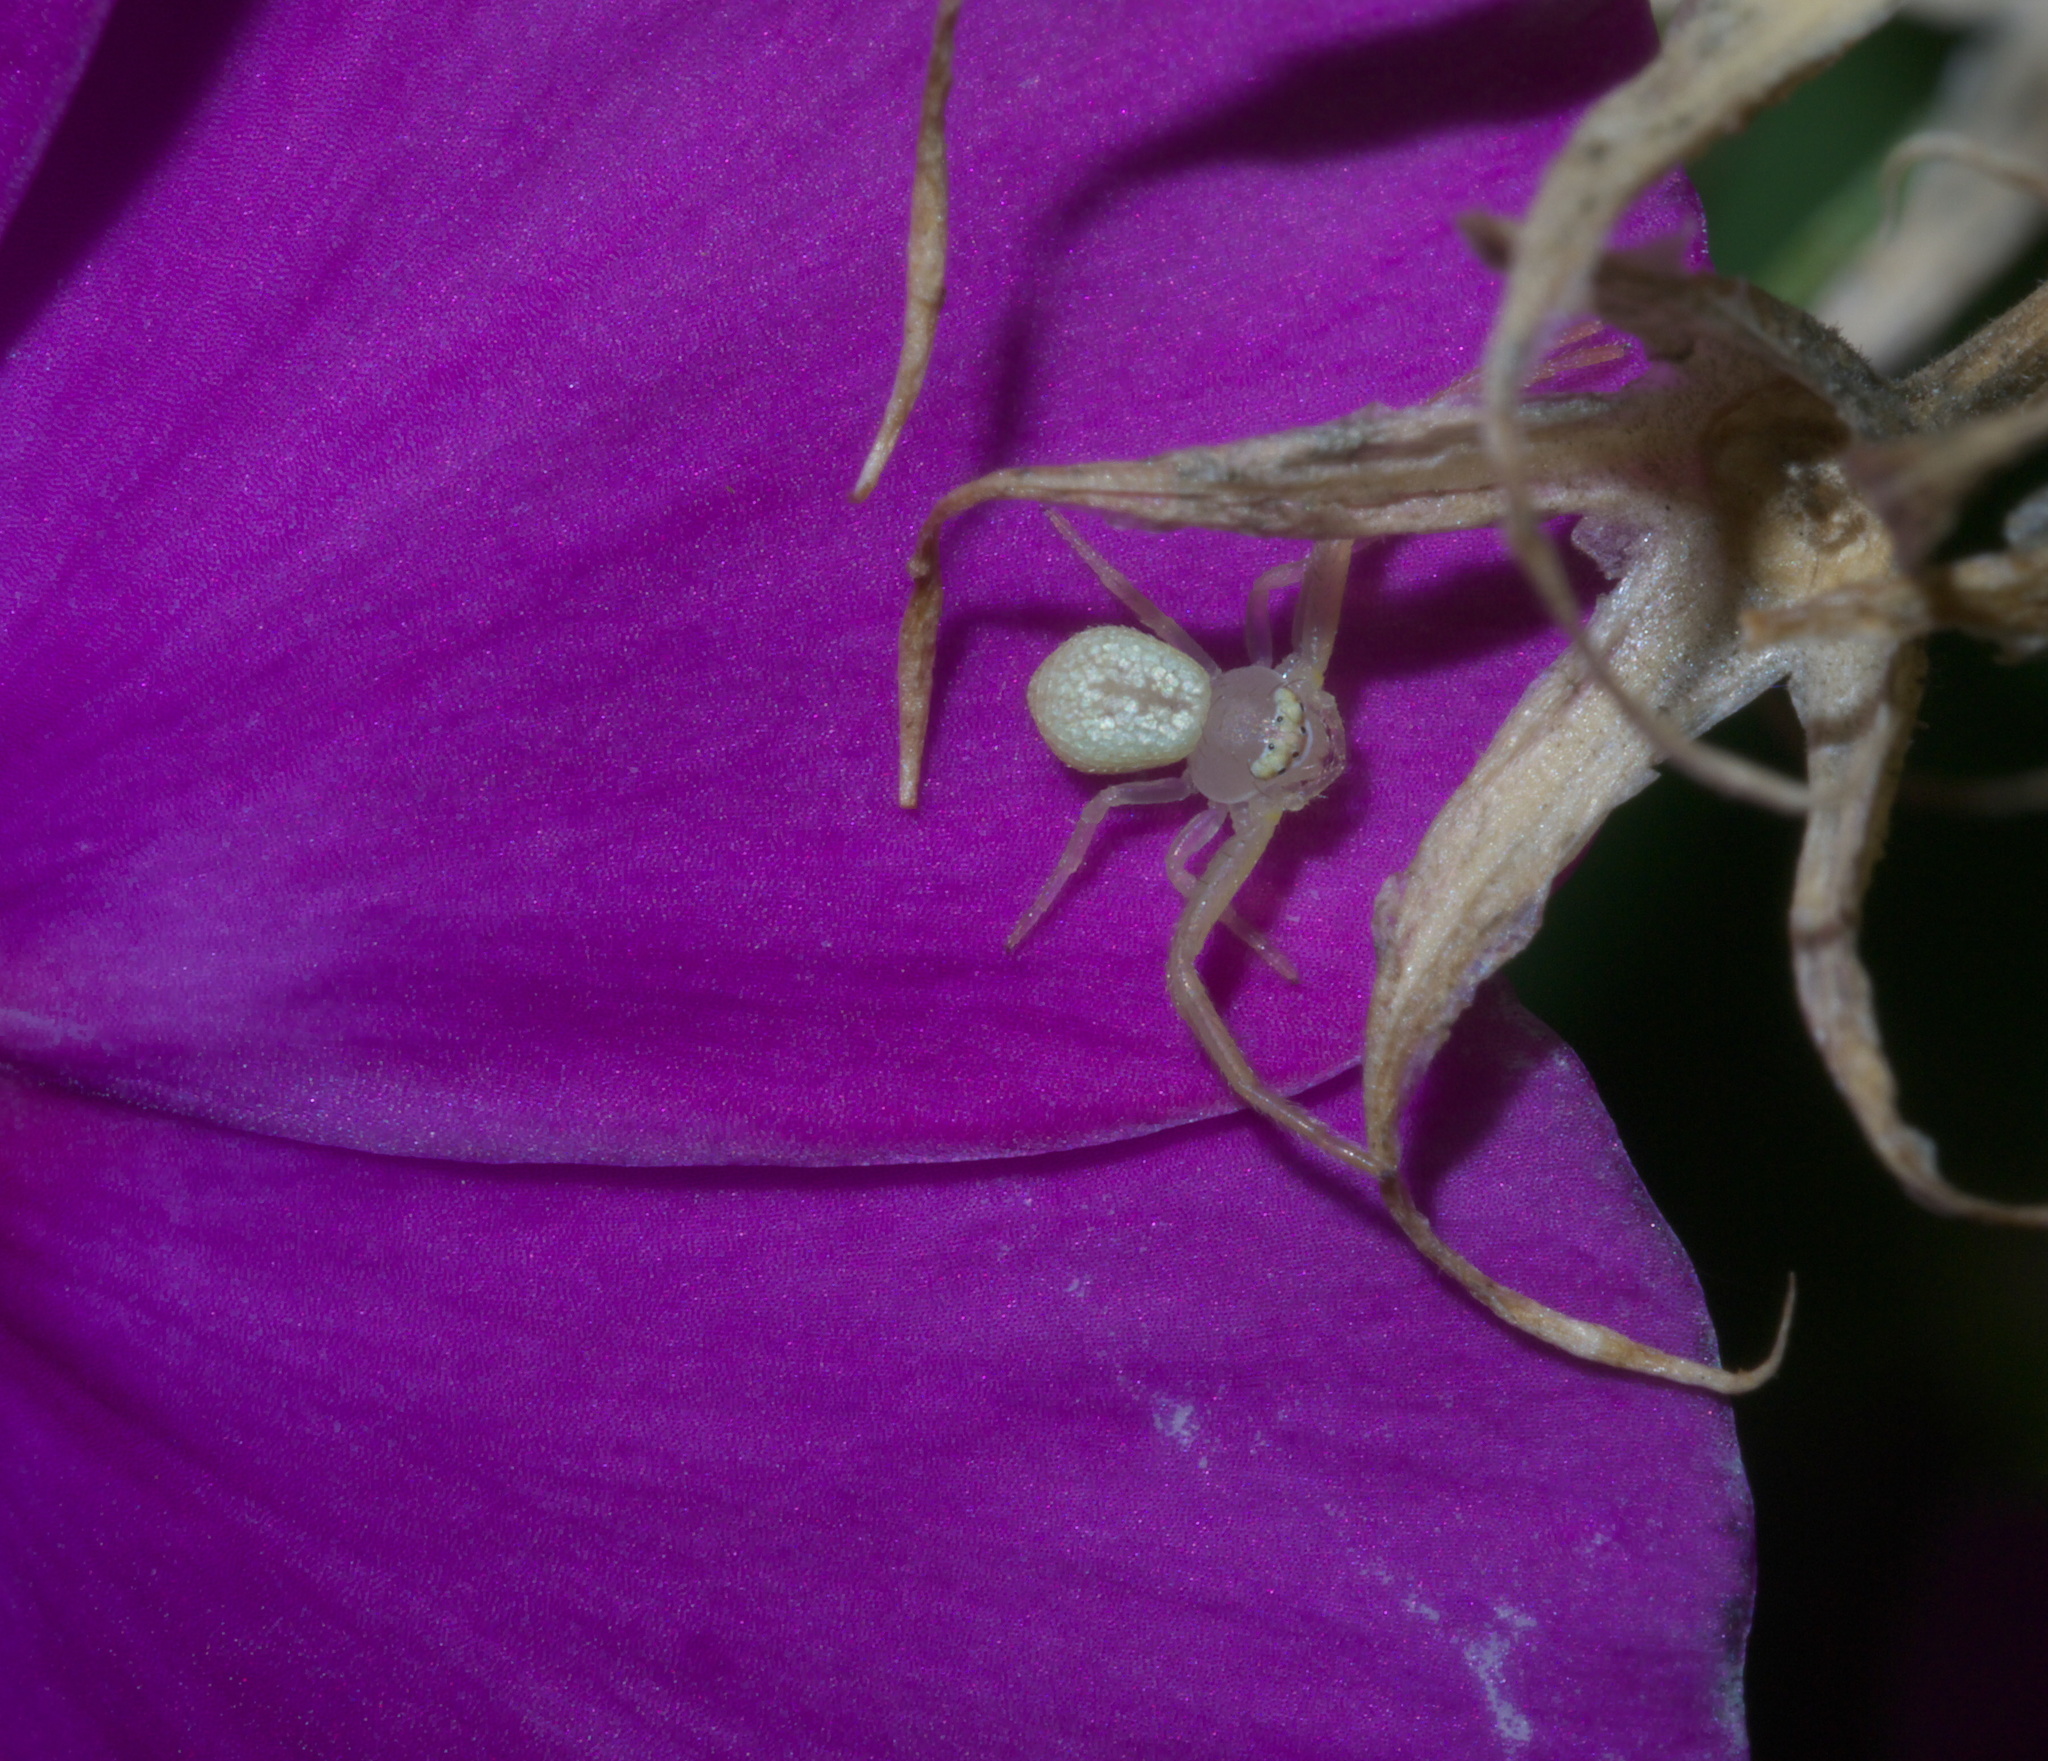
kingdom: Animalia
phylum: Arthropoda
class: Arachnida
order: Araneae
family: Thomisidae
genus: Misumessus
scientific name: Misumessus oblongus
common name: American green crab spider
